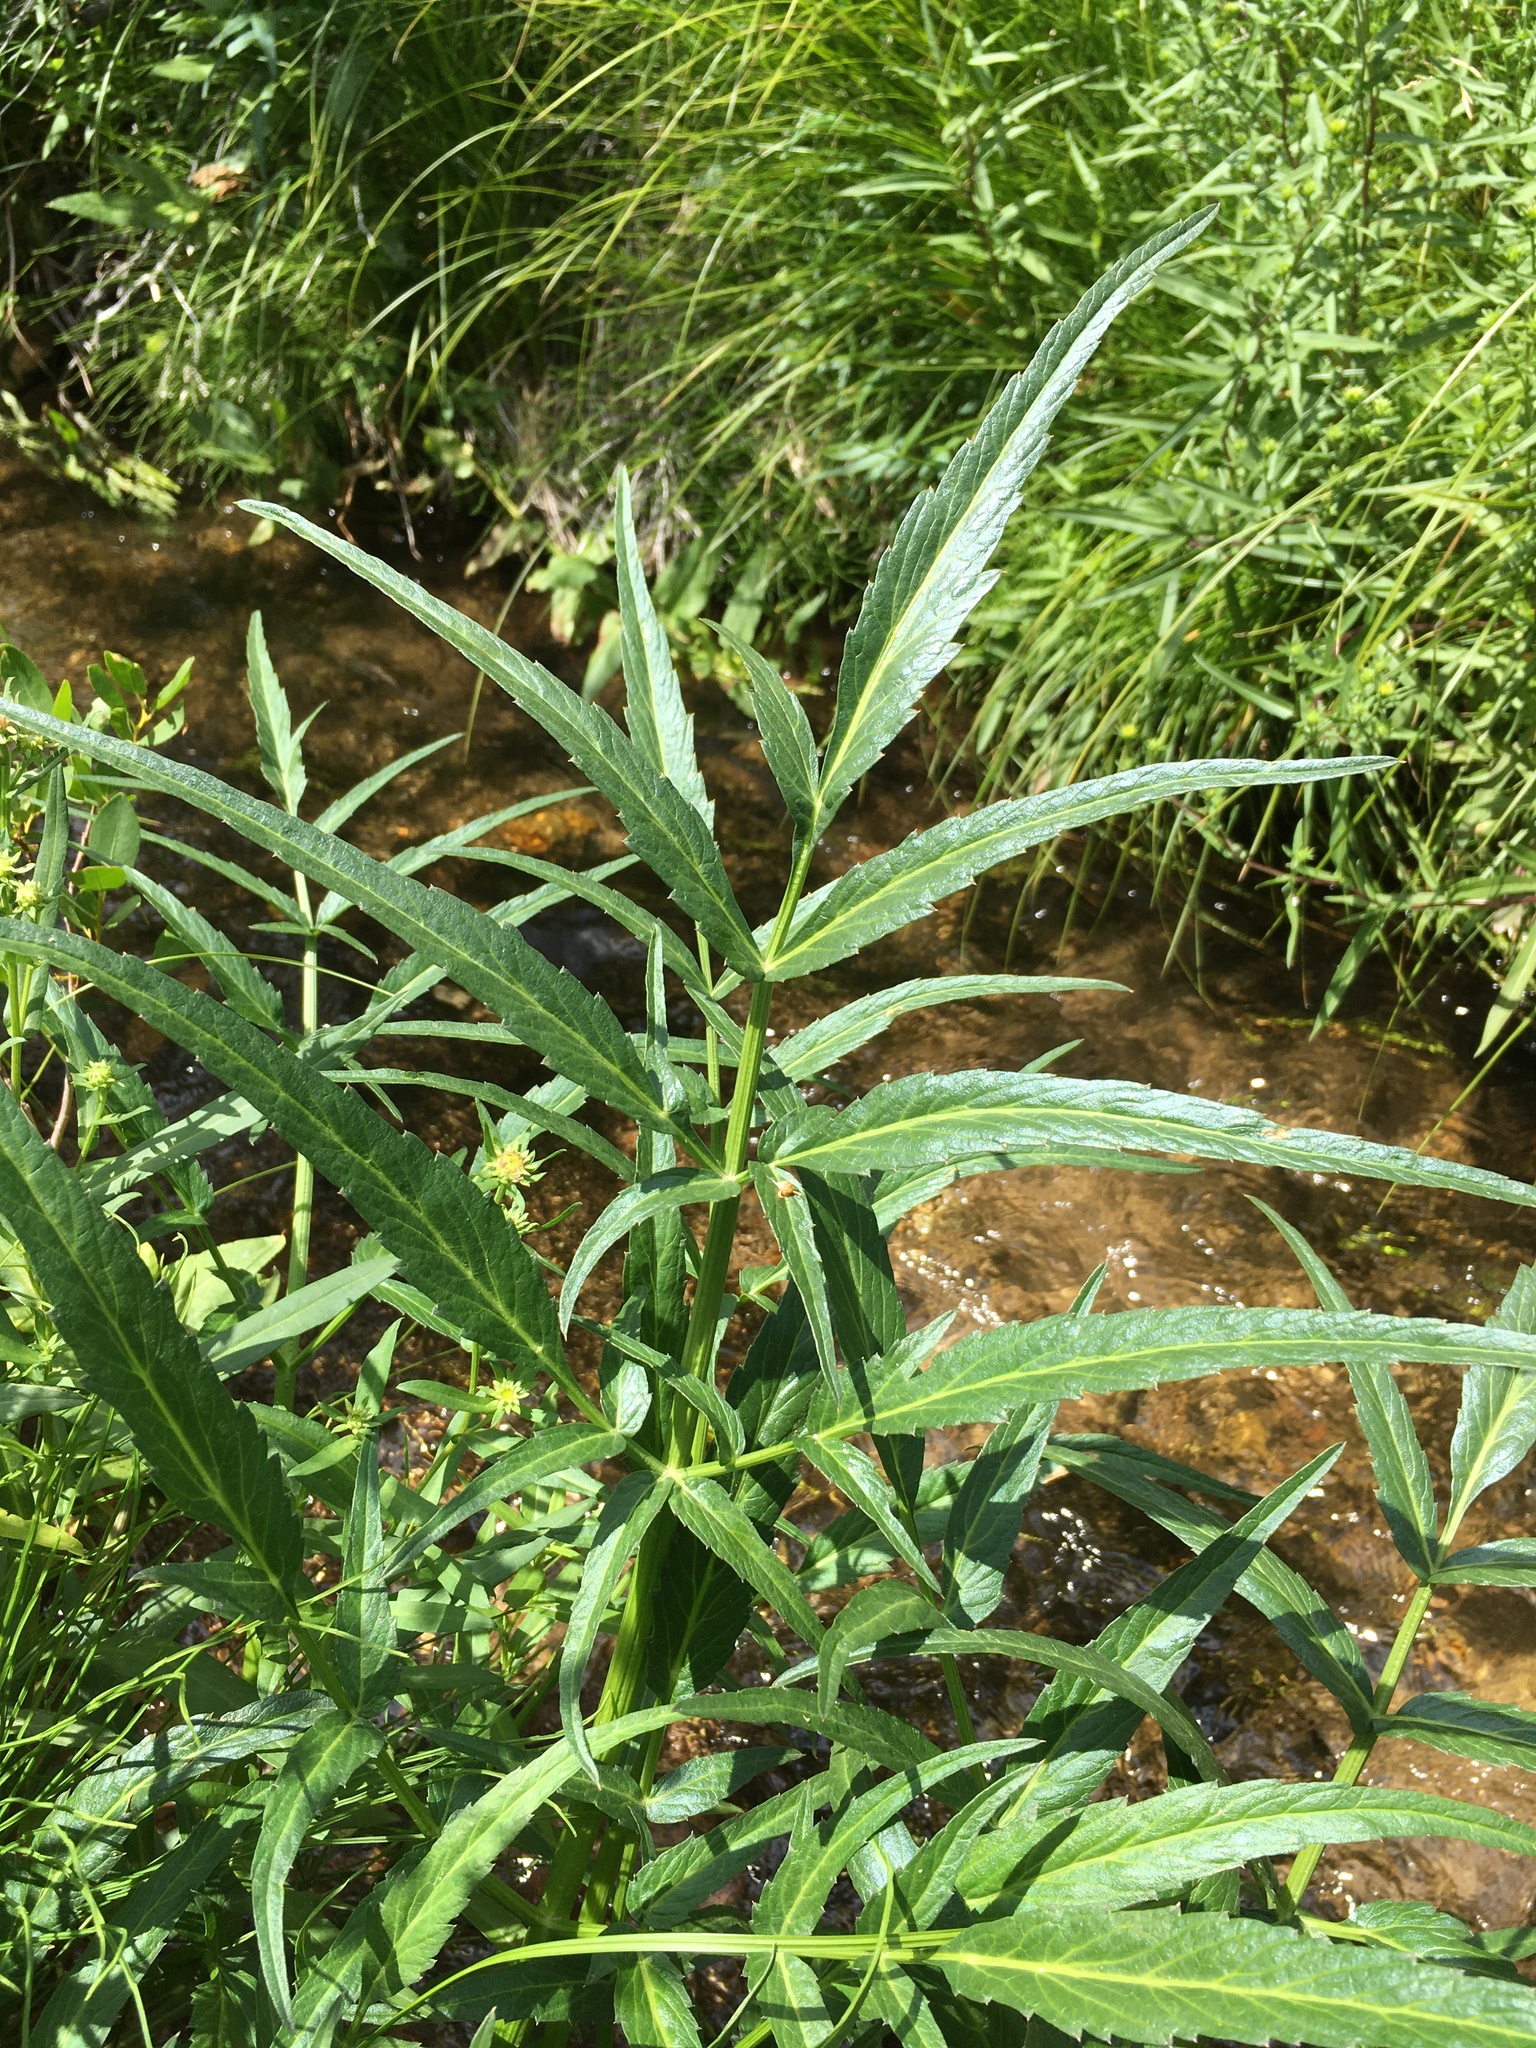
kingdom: Plantae
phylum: Tracheophyta
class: Magnoliopsida
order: Apiales
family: Apiaceae
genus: Angelica
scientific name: Angelica kingii
